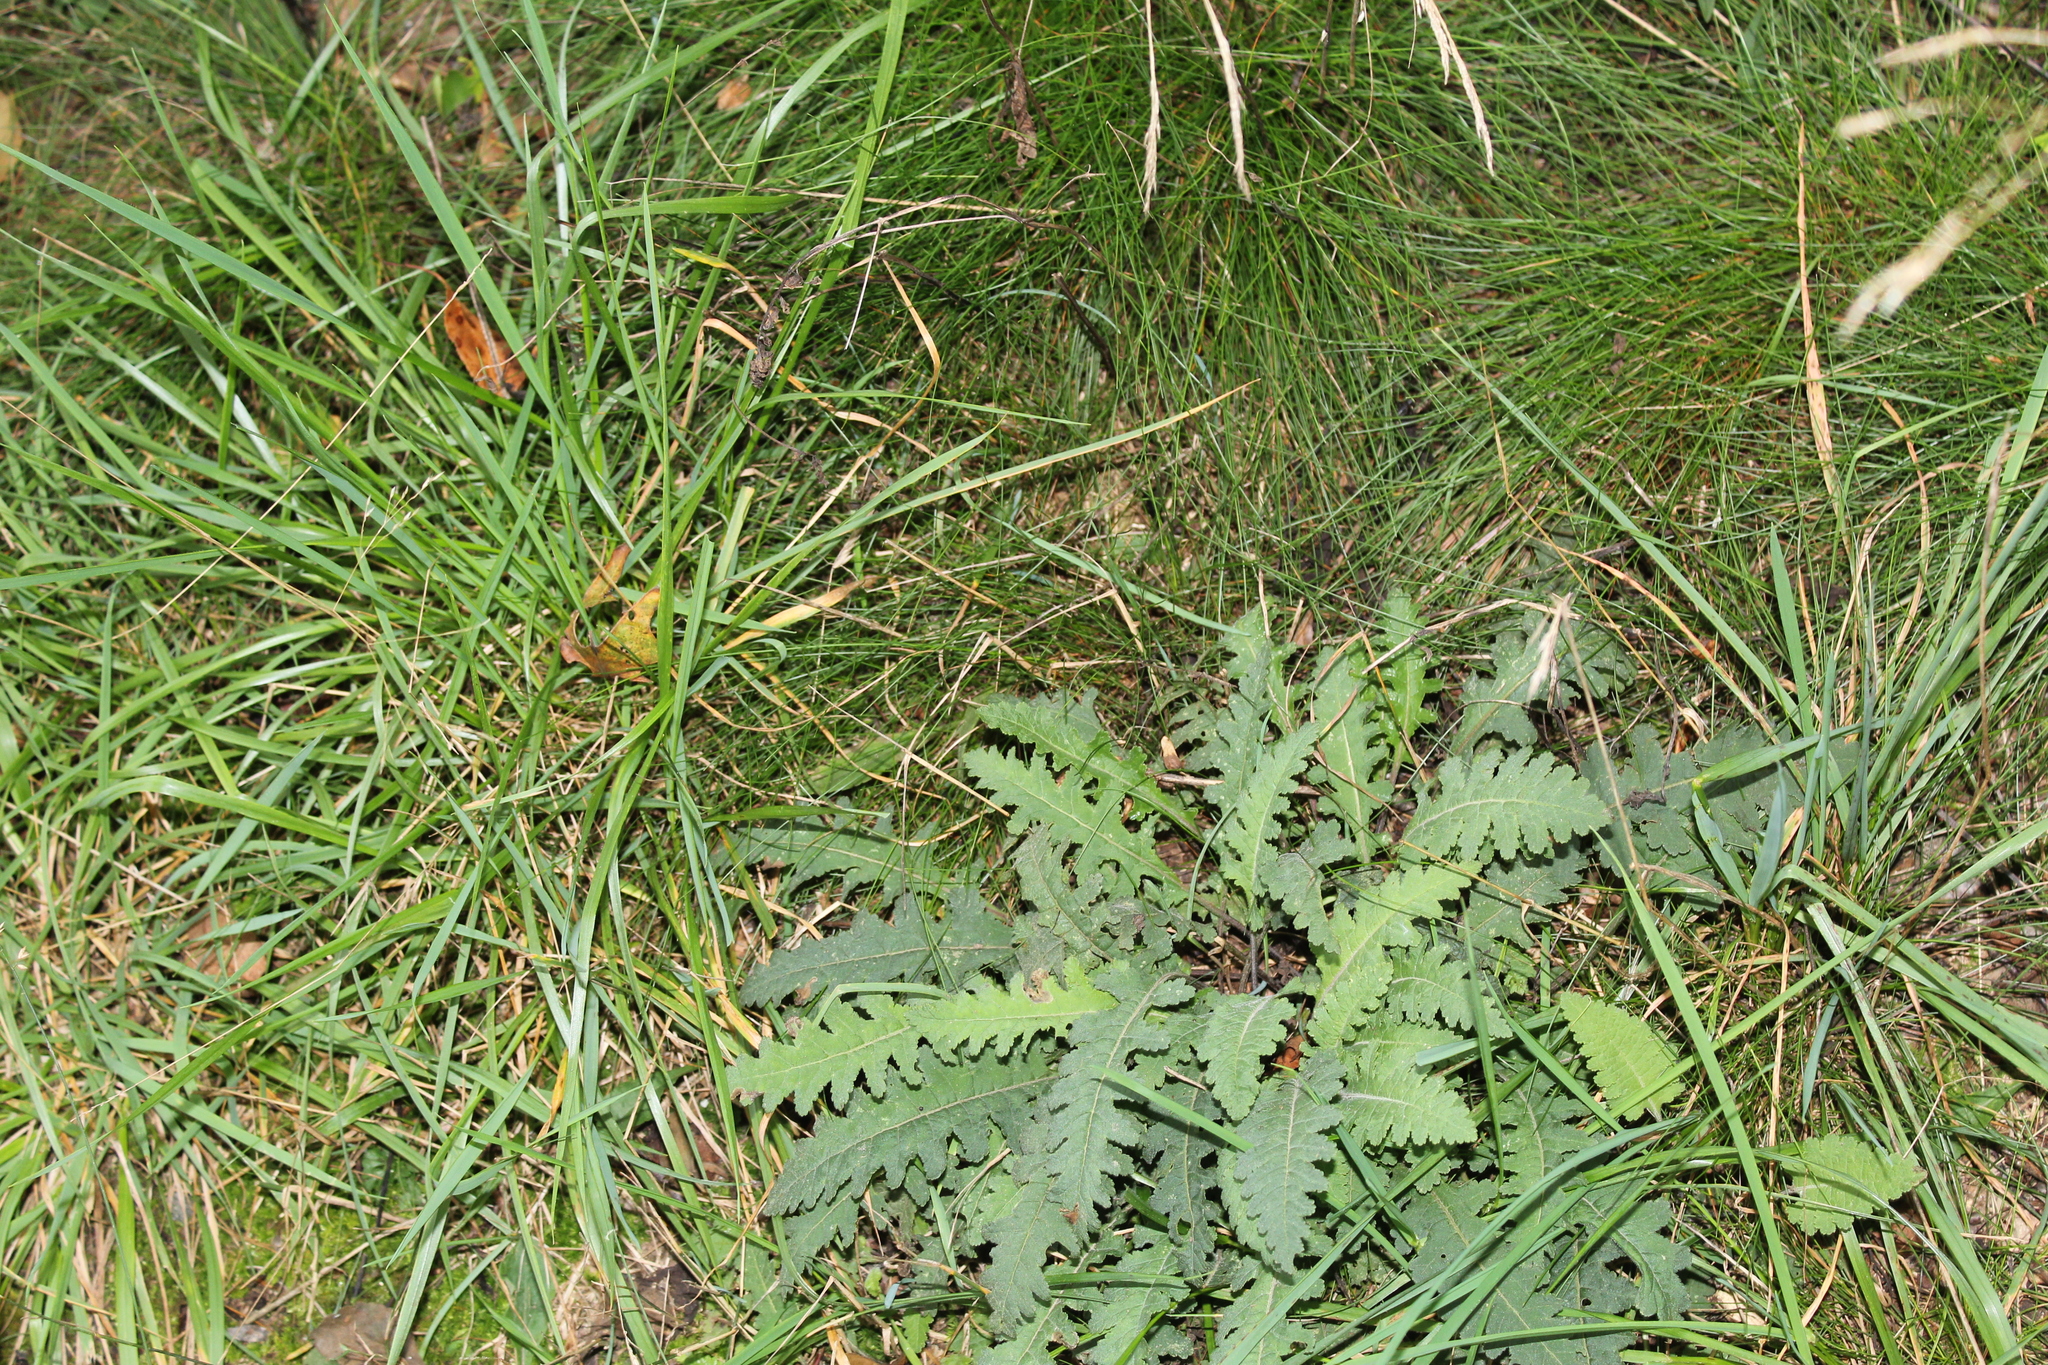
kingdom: Plantae
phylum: Tracheophyta
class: Magnoliopsida
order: Lamiales
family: Orobanchaceae
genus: Pedicularis
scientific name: Pedicularis canadensis
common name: Early lousewort
